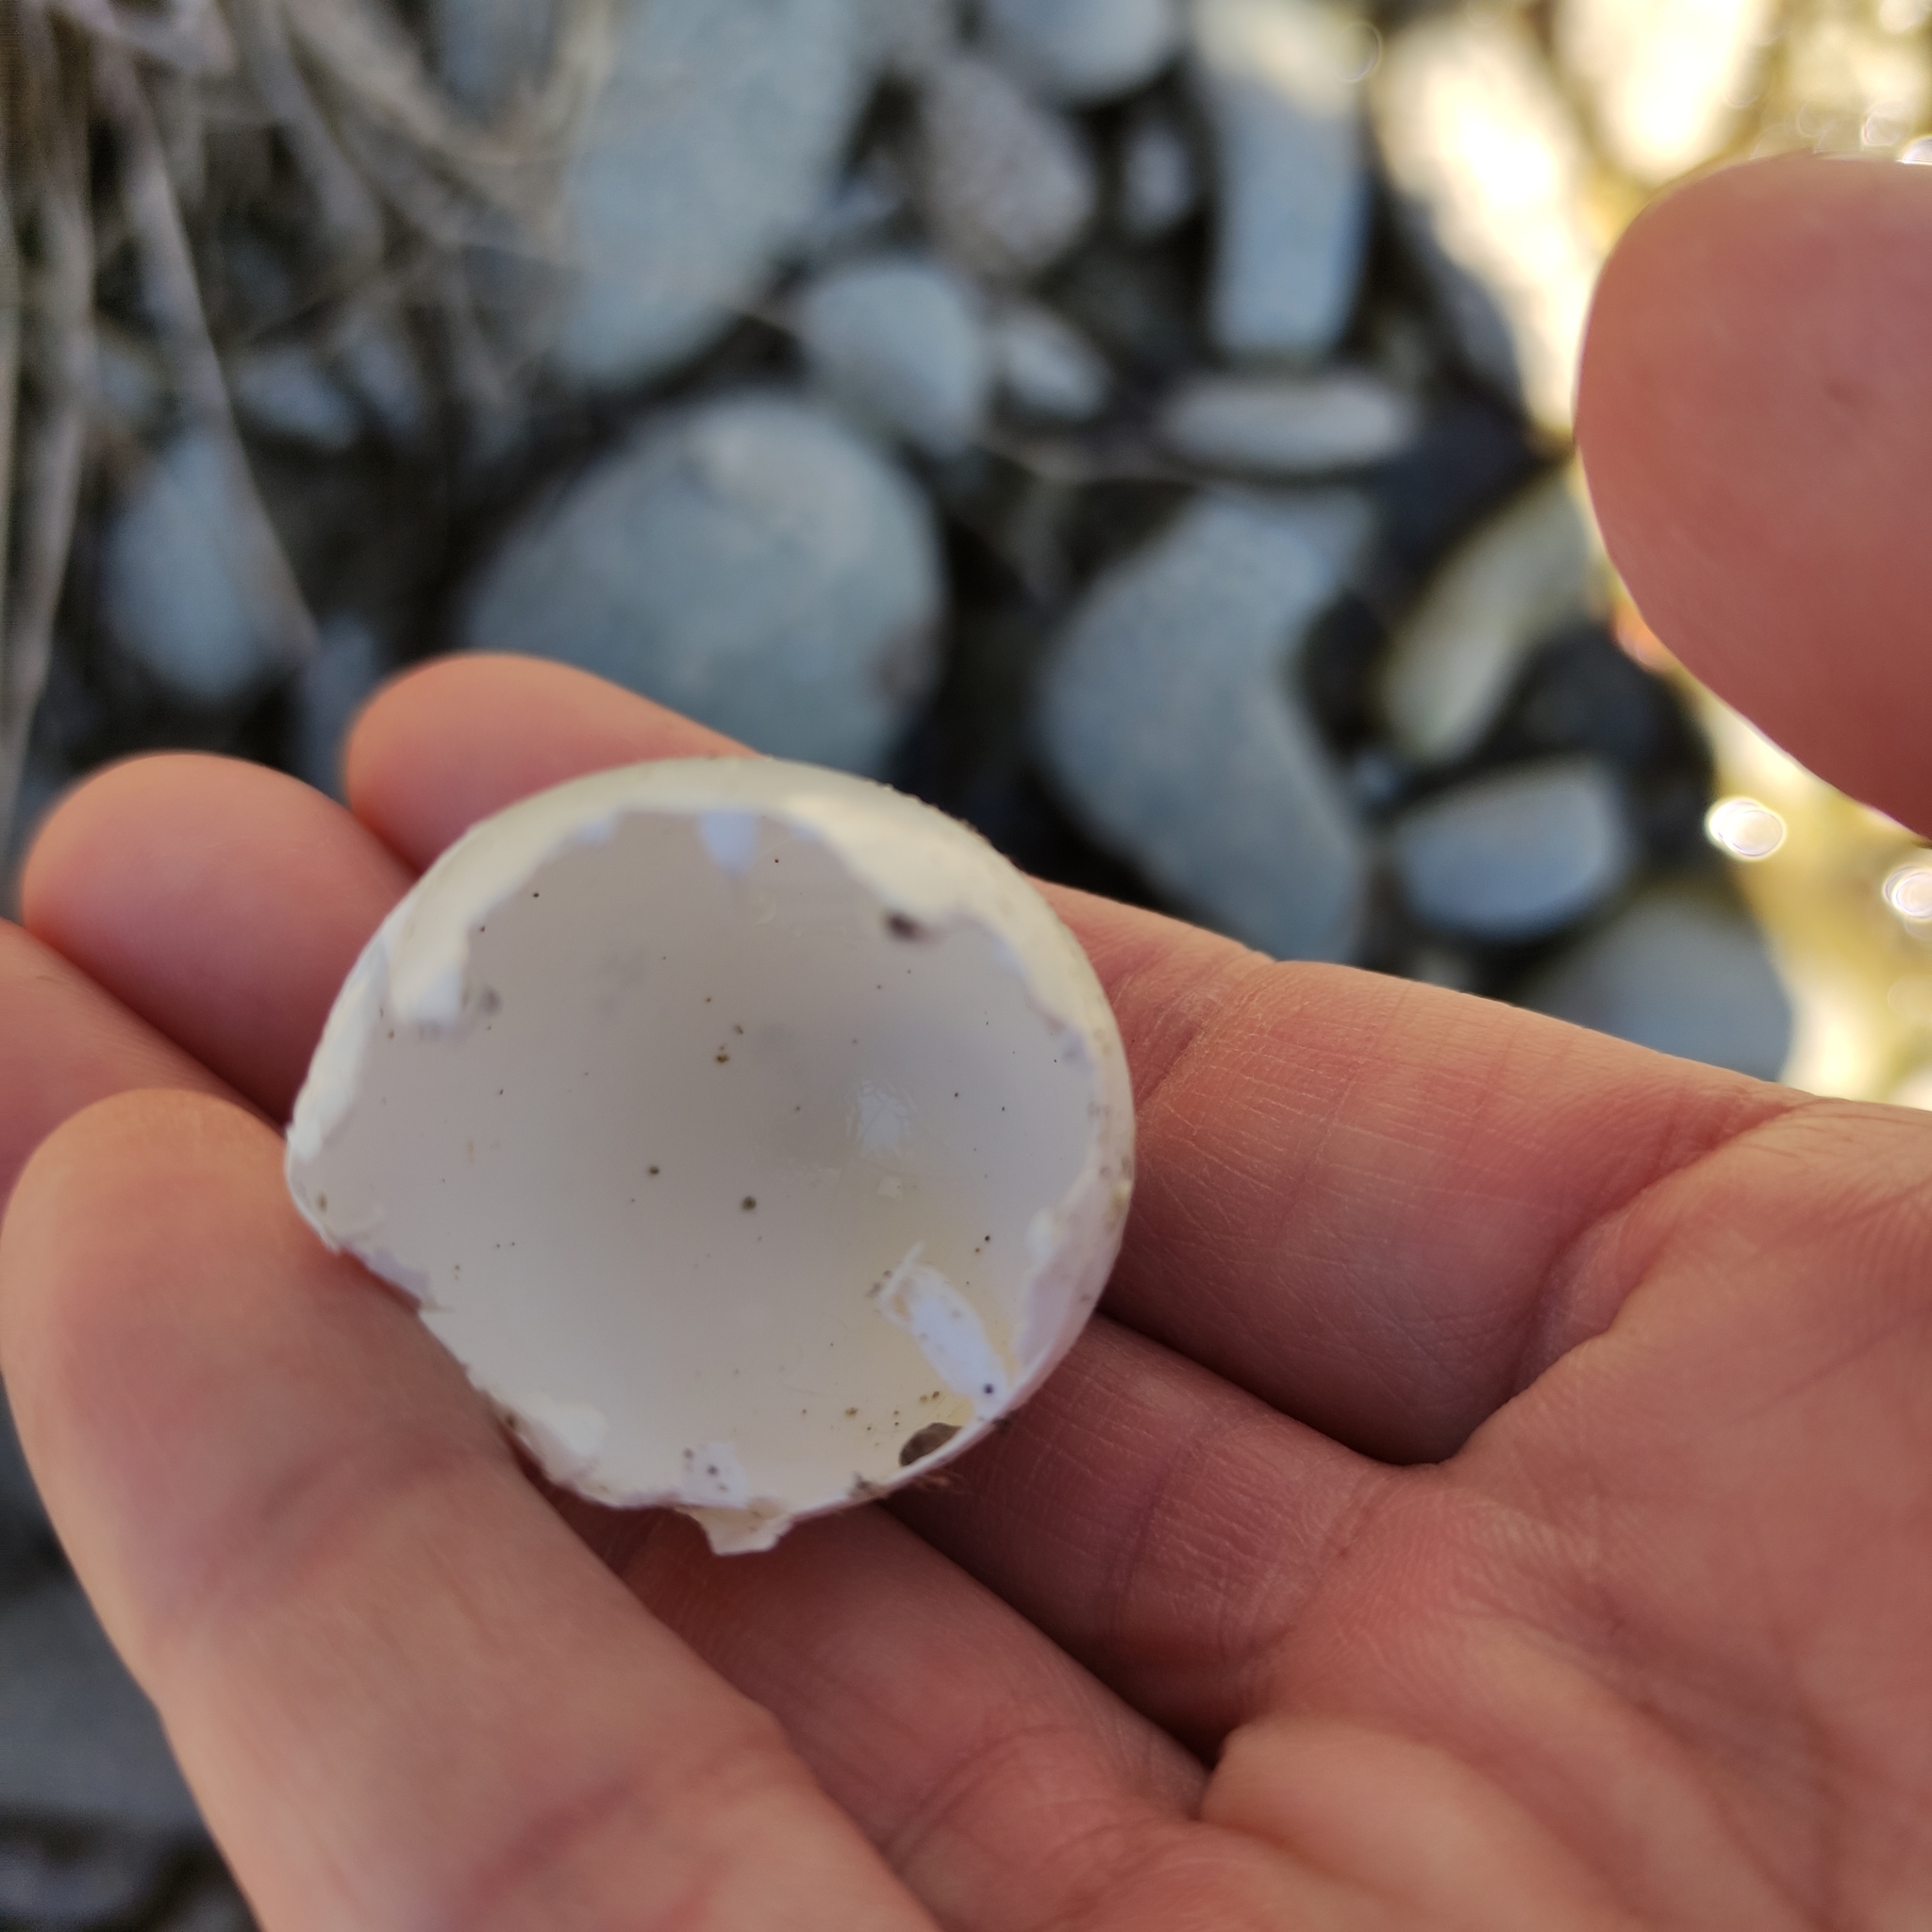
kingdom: Animalia
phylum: Chordata
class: Aves
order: Columbiformes
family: Columbidae
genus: Columba
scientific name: Columba livia
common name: Rock pigeon
